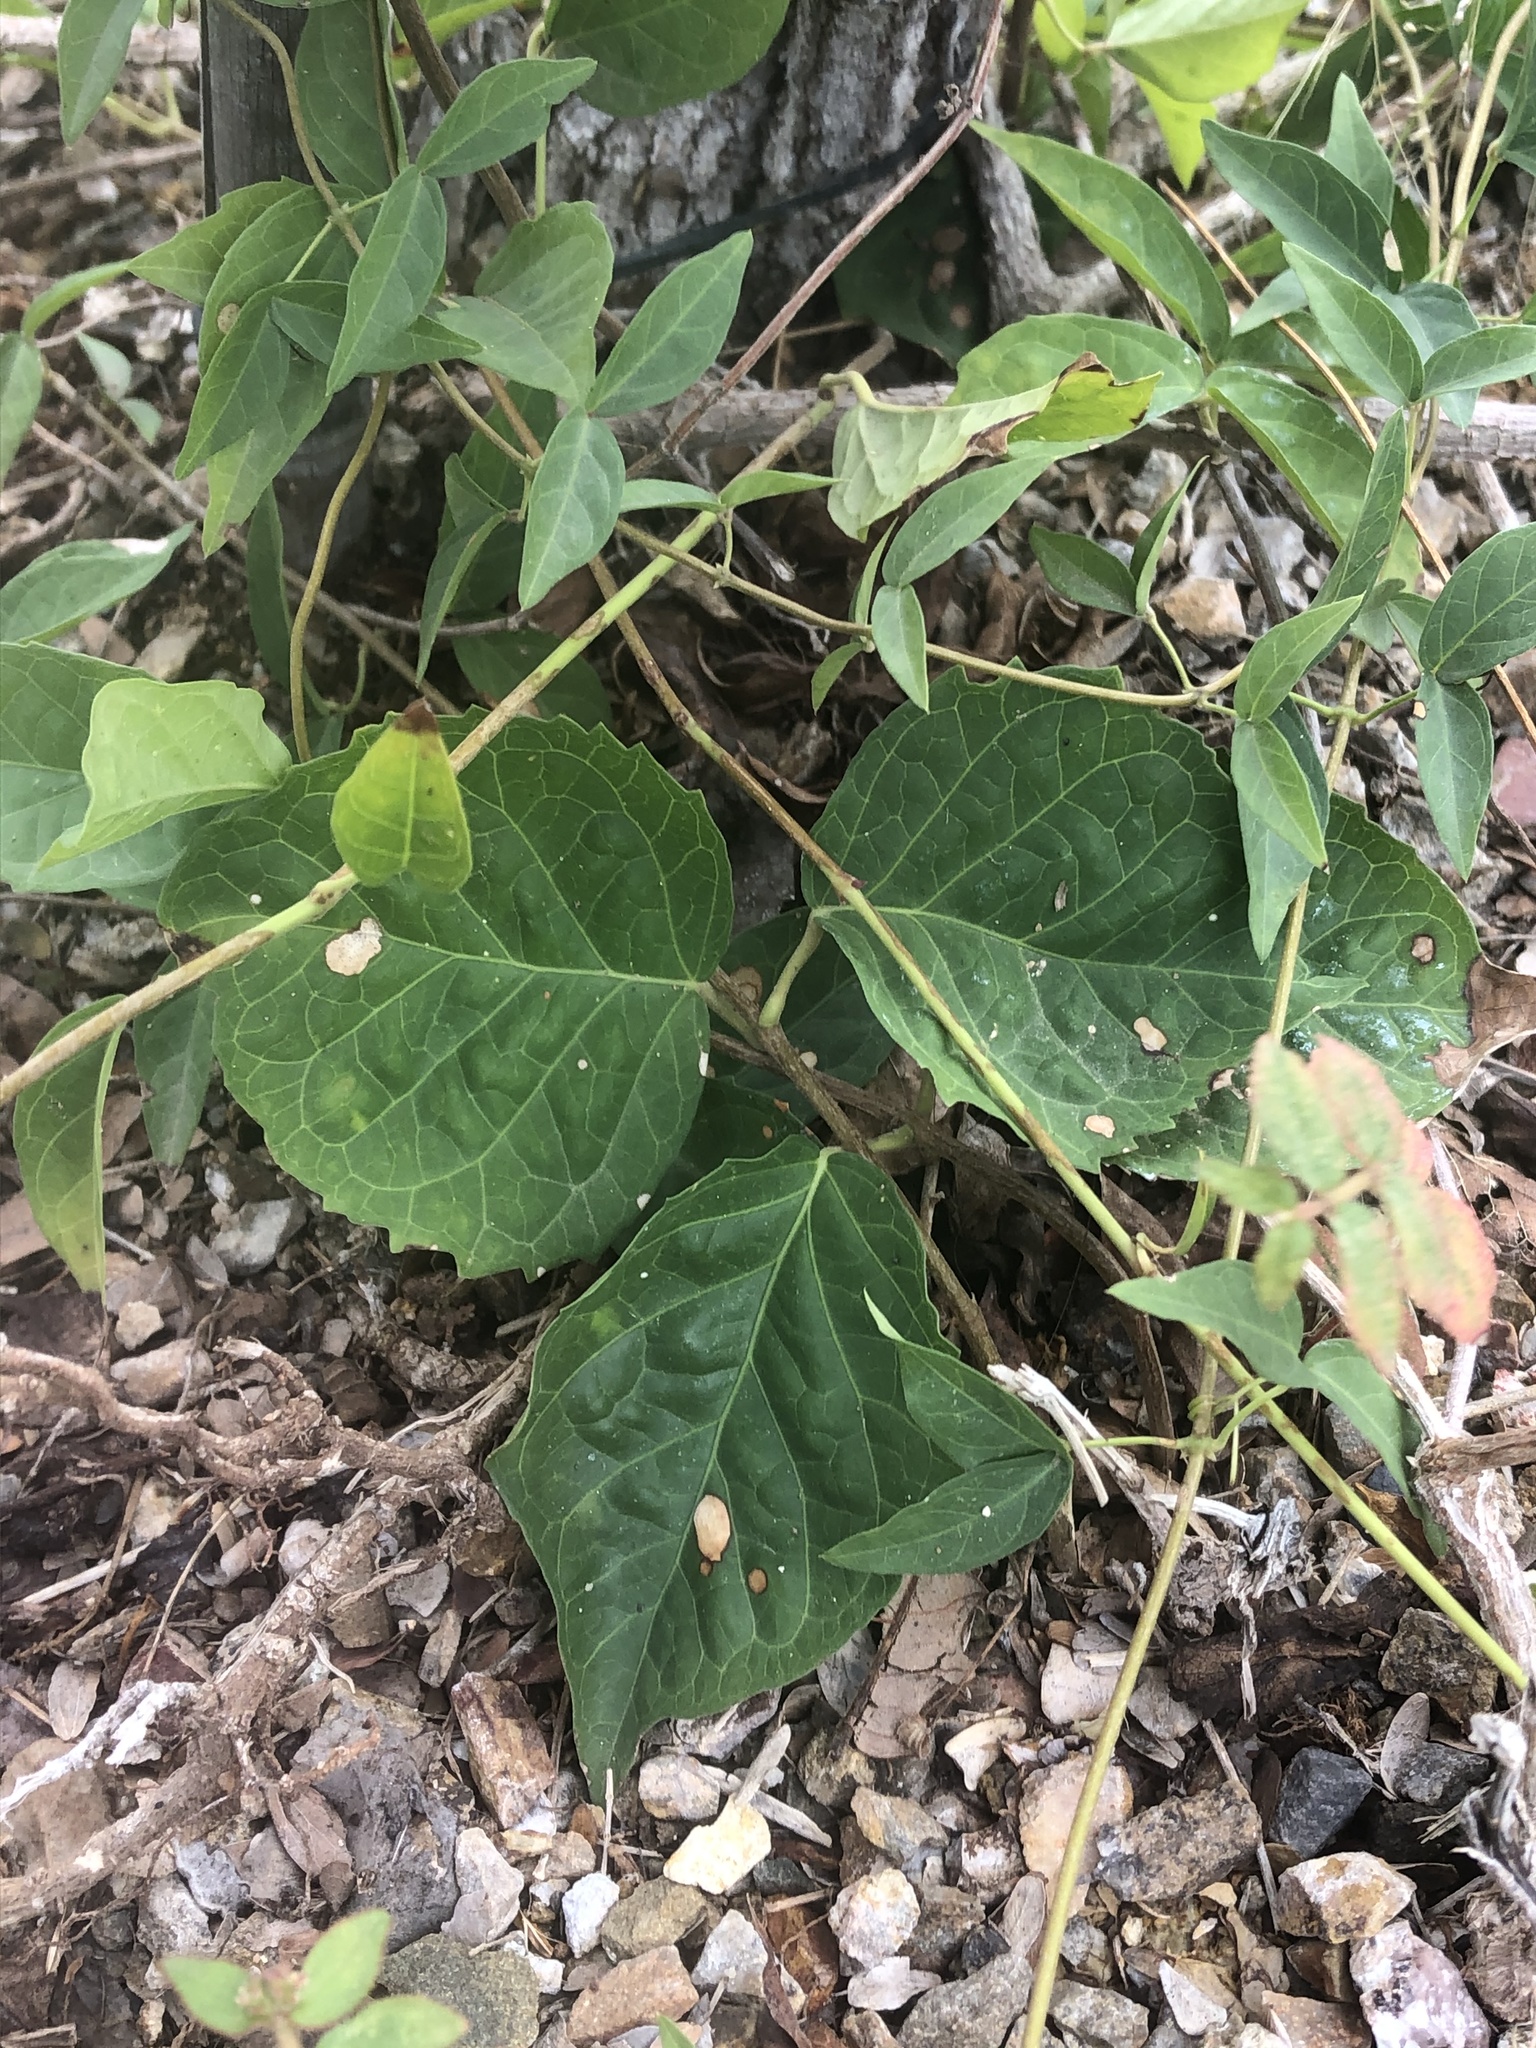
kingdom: Plantae
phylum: Tracheophyta
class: Magnoliopsida
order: Lamiales
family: Bignoniaceae
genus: Dolichandra
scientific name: Dolichandra unguis-cati
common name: Catclaw vine
